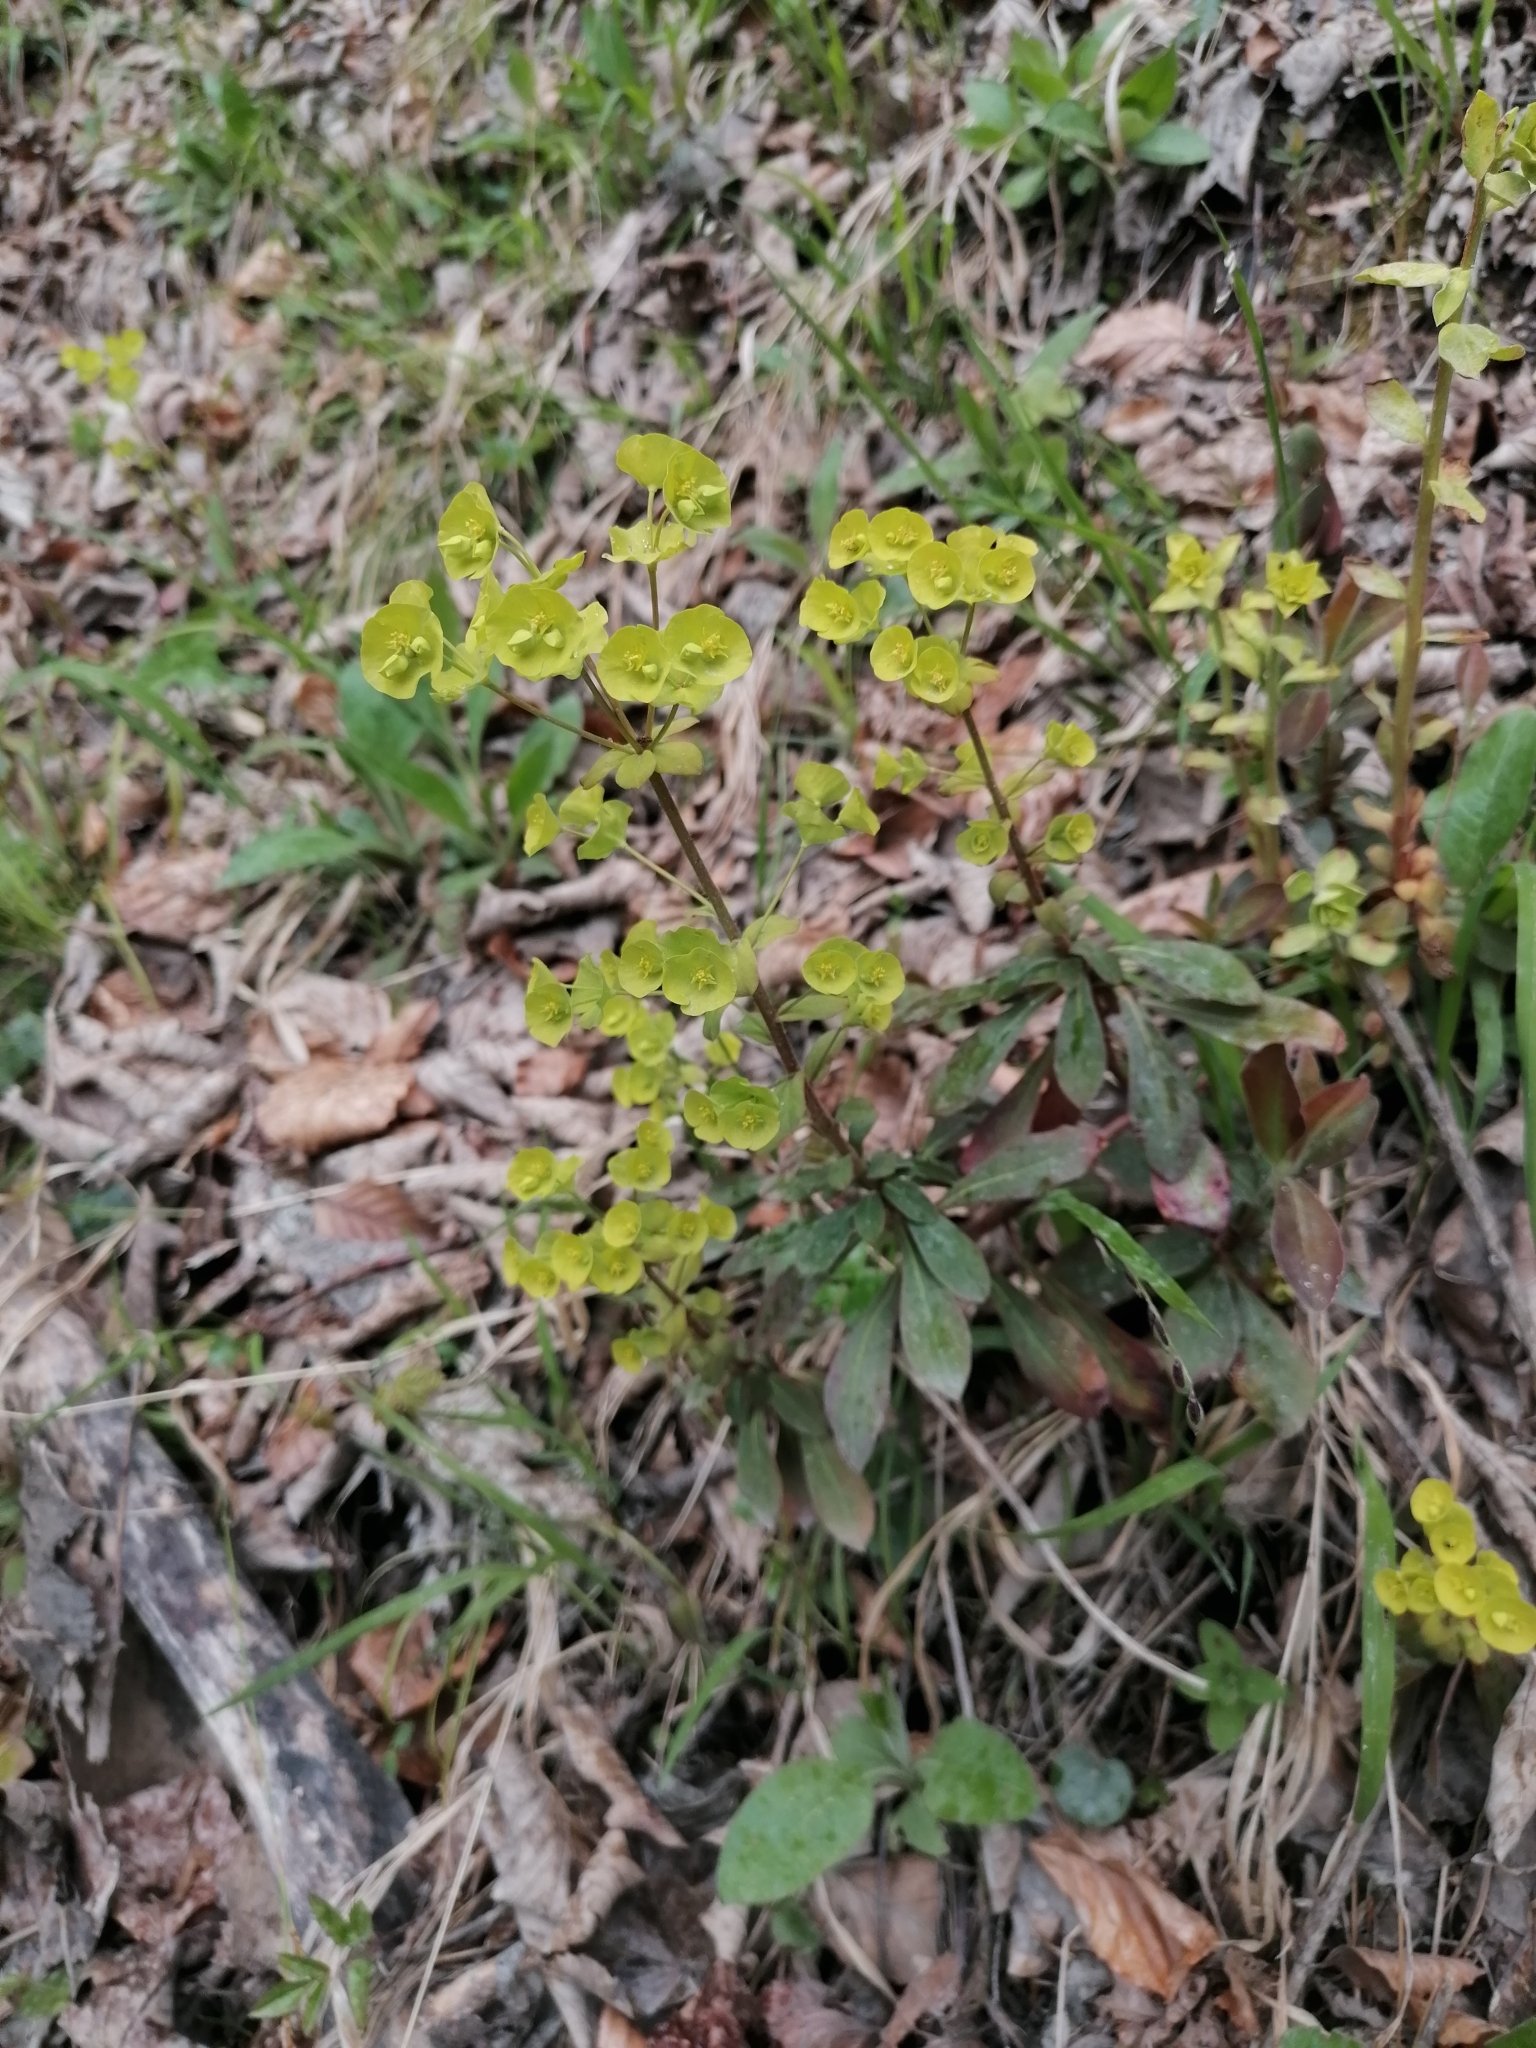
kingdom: Plantae
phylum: Tracheophyta
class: Magnoliopsida
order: Malpighiales
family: Euphorbiaceae
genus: Euphorbia
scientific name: Euphorbia amygdaloides
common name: Wood spurge
